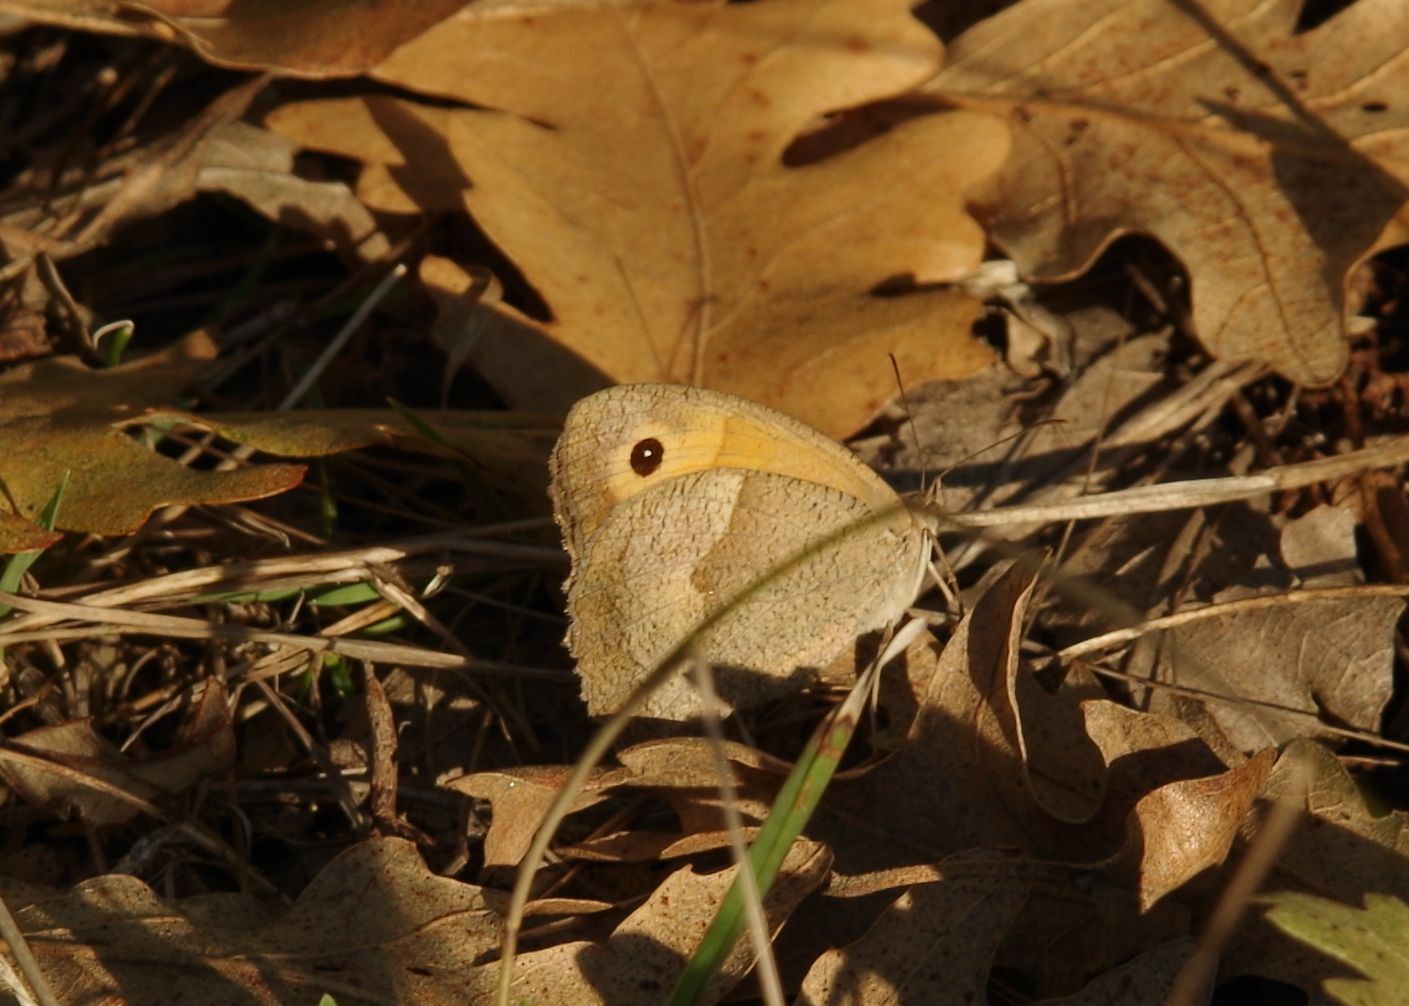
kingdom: Animalia
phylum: Arthropoda
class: Insecta
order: Lepidoptera
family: Nymphalidae
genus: Maniola
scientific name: Maniola jurtina
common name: Meadow brown
